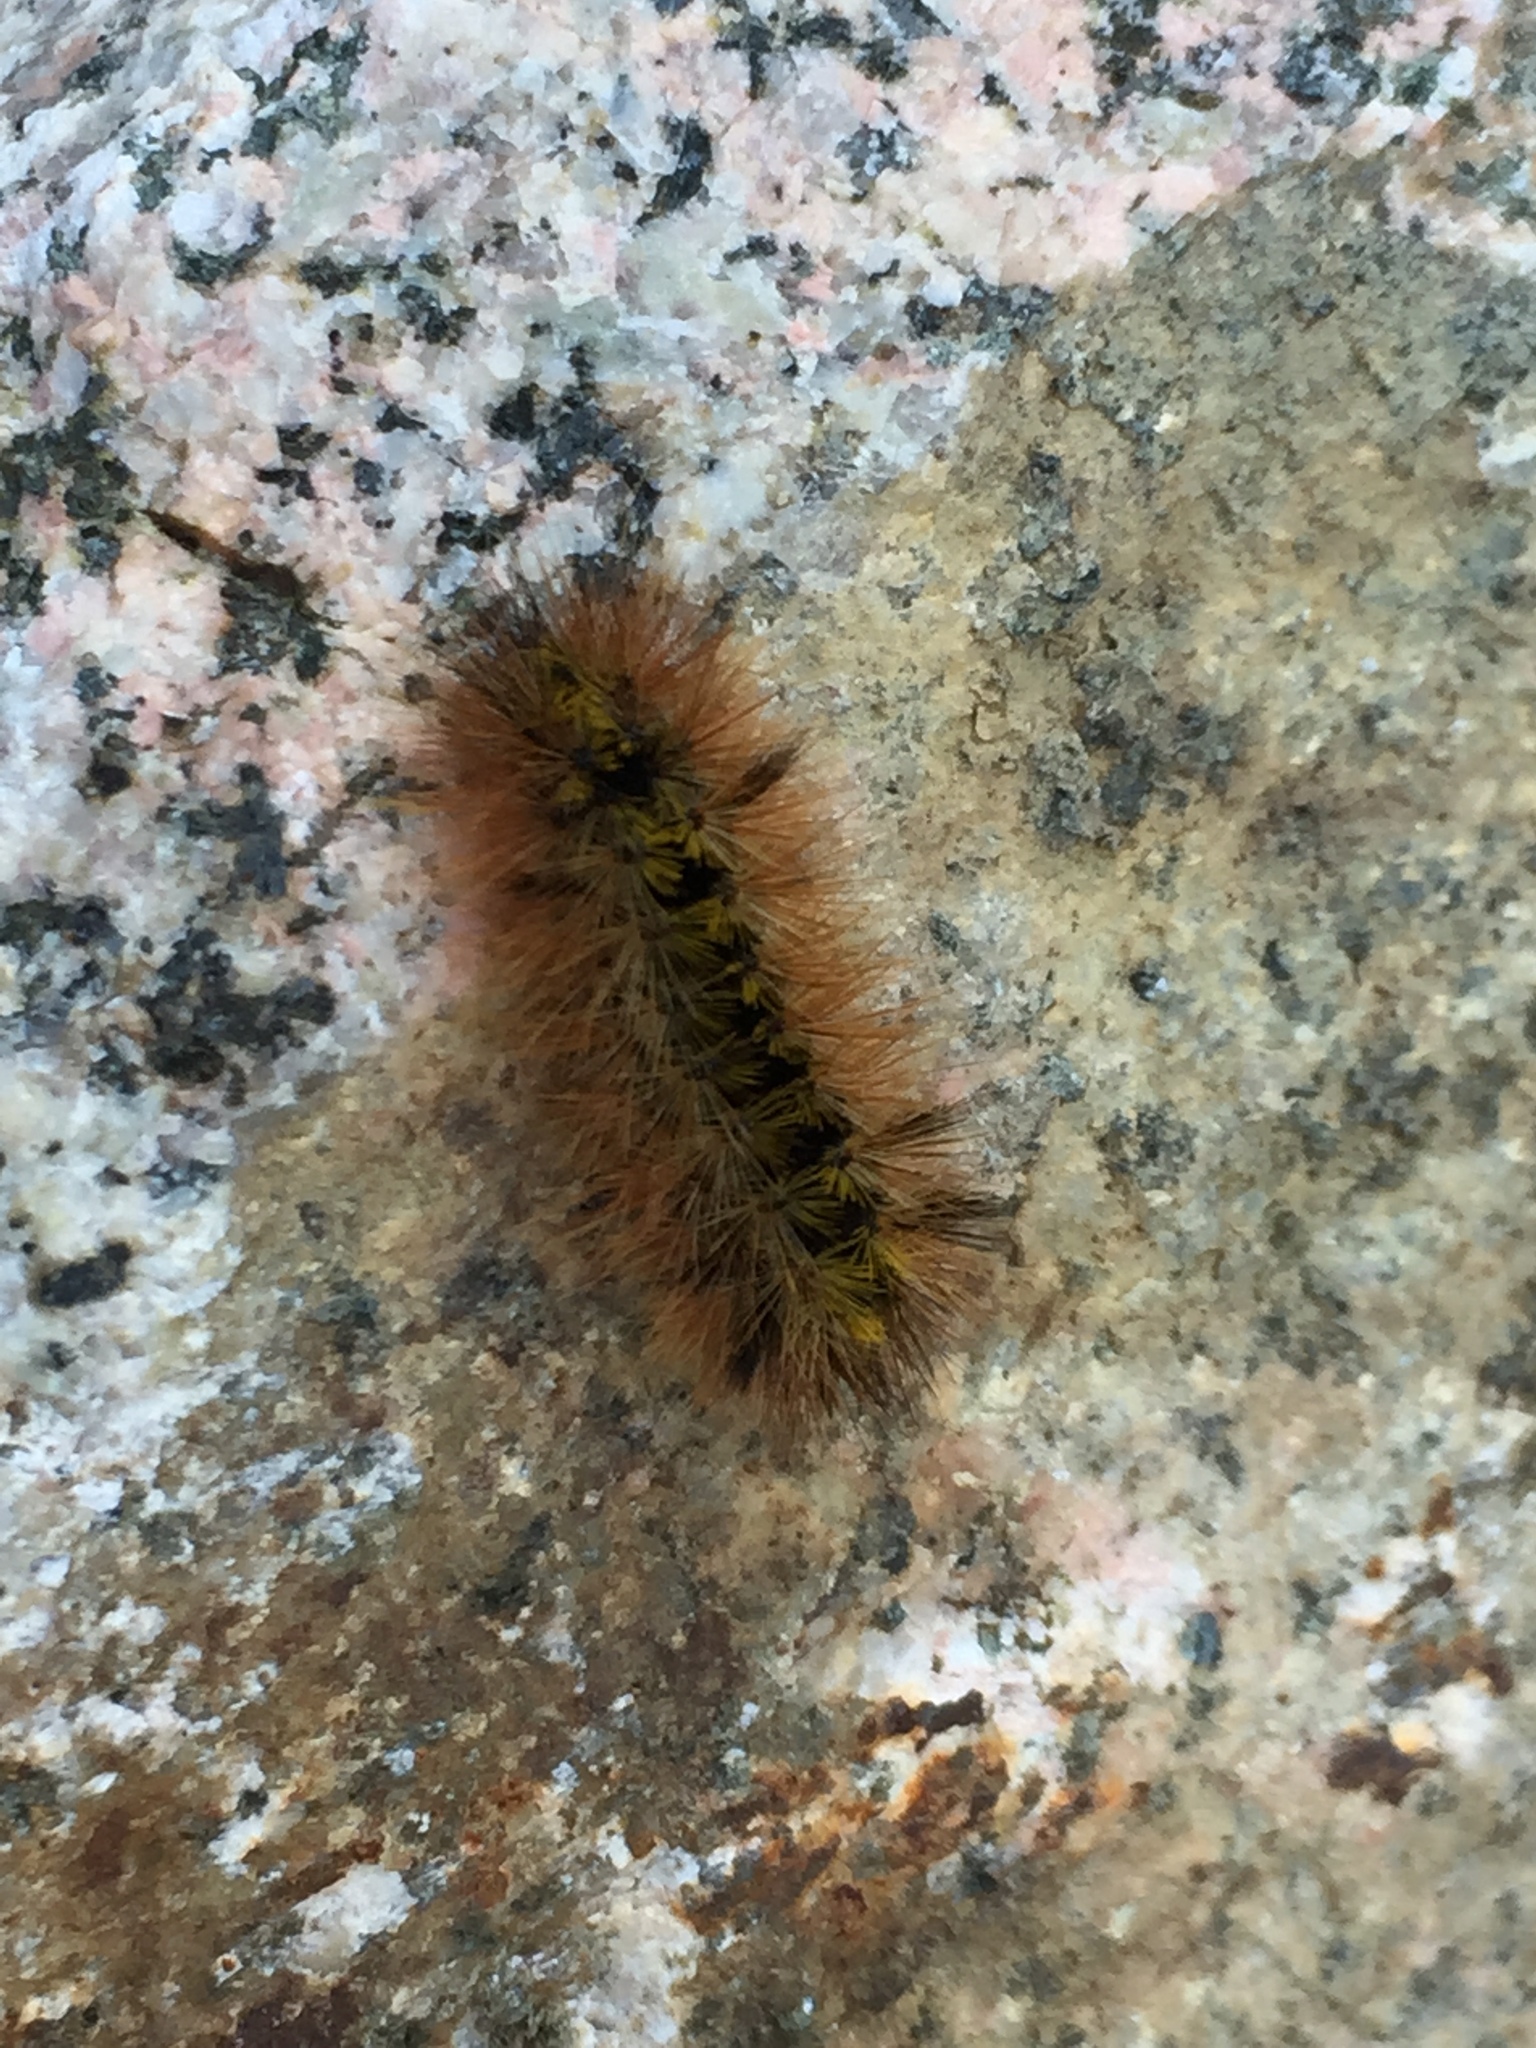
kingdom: Animalia
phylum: Arthropoda
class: Insecta
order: Lepidoptera
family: Erebidae
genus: Lophocampa
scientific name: Lophocampa argentata
